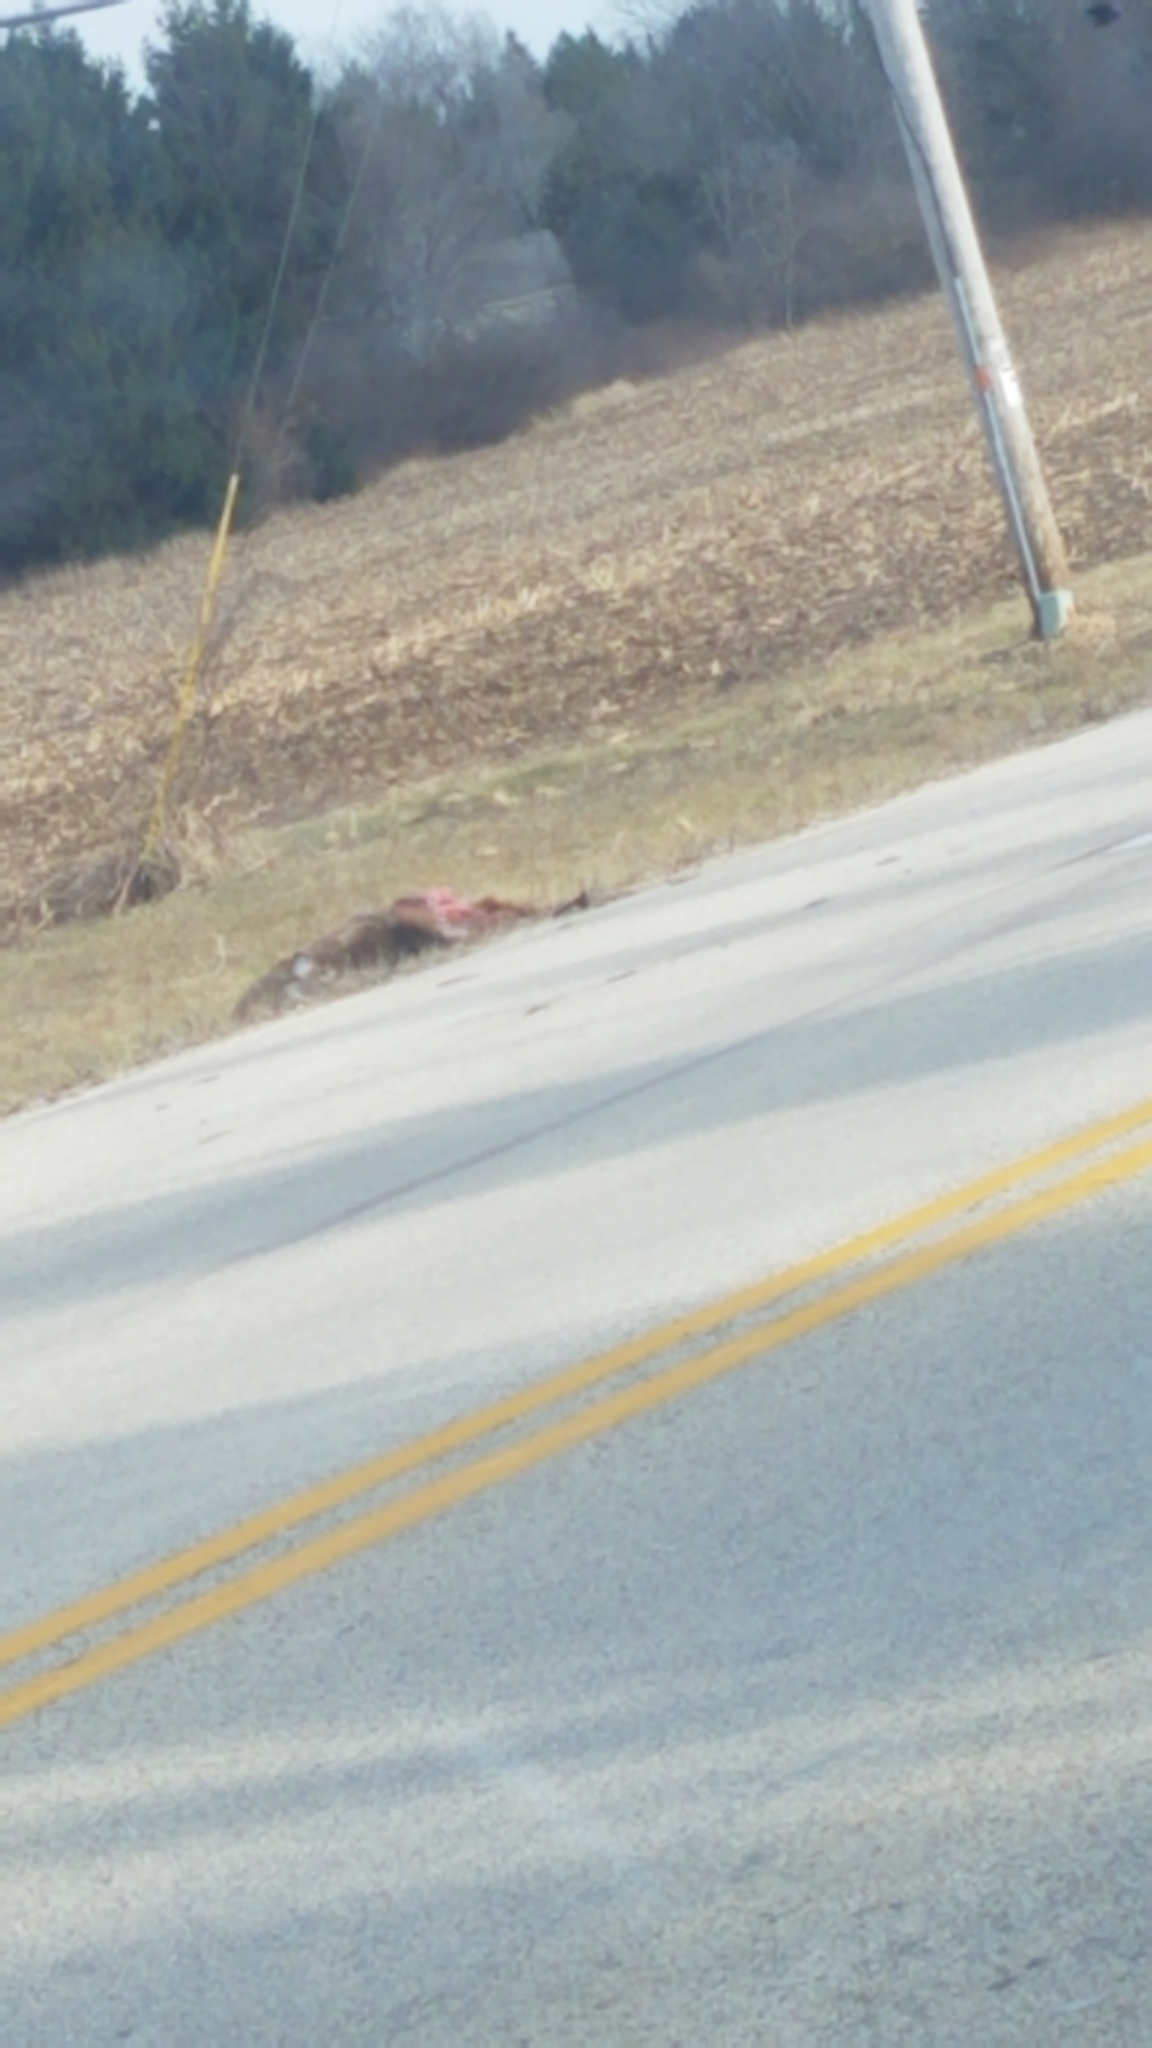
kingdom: Animalia
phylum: Chordata
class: Mammalia
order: Artiodactyla
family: Cervidae
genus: Odocoileus
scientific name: Odocoileus virginianus
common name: White-tailed deer
